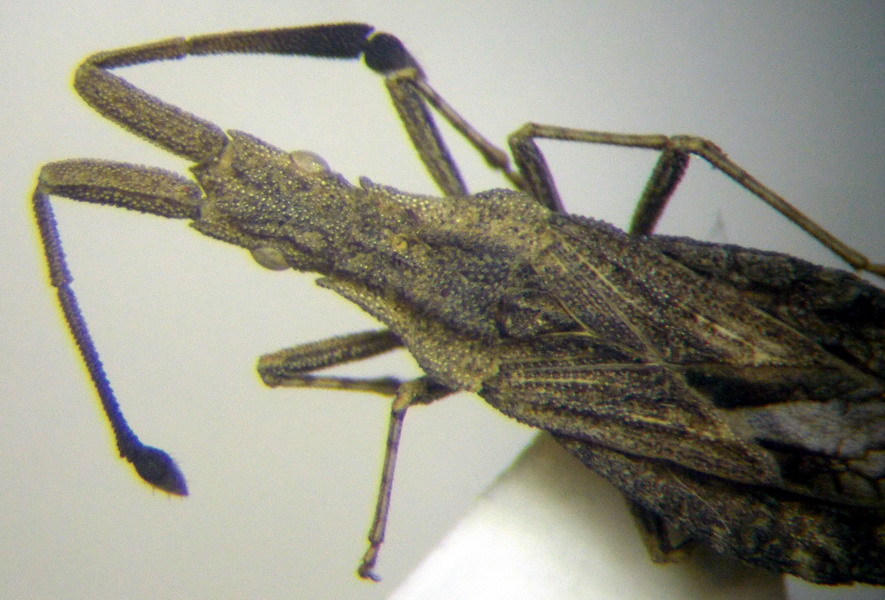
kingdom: Animalia
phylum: Arthropoda
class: Insecta
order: Hemiptera
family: Coreidae
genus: Spathocera
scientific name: Spathocera obscura
